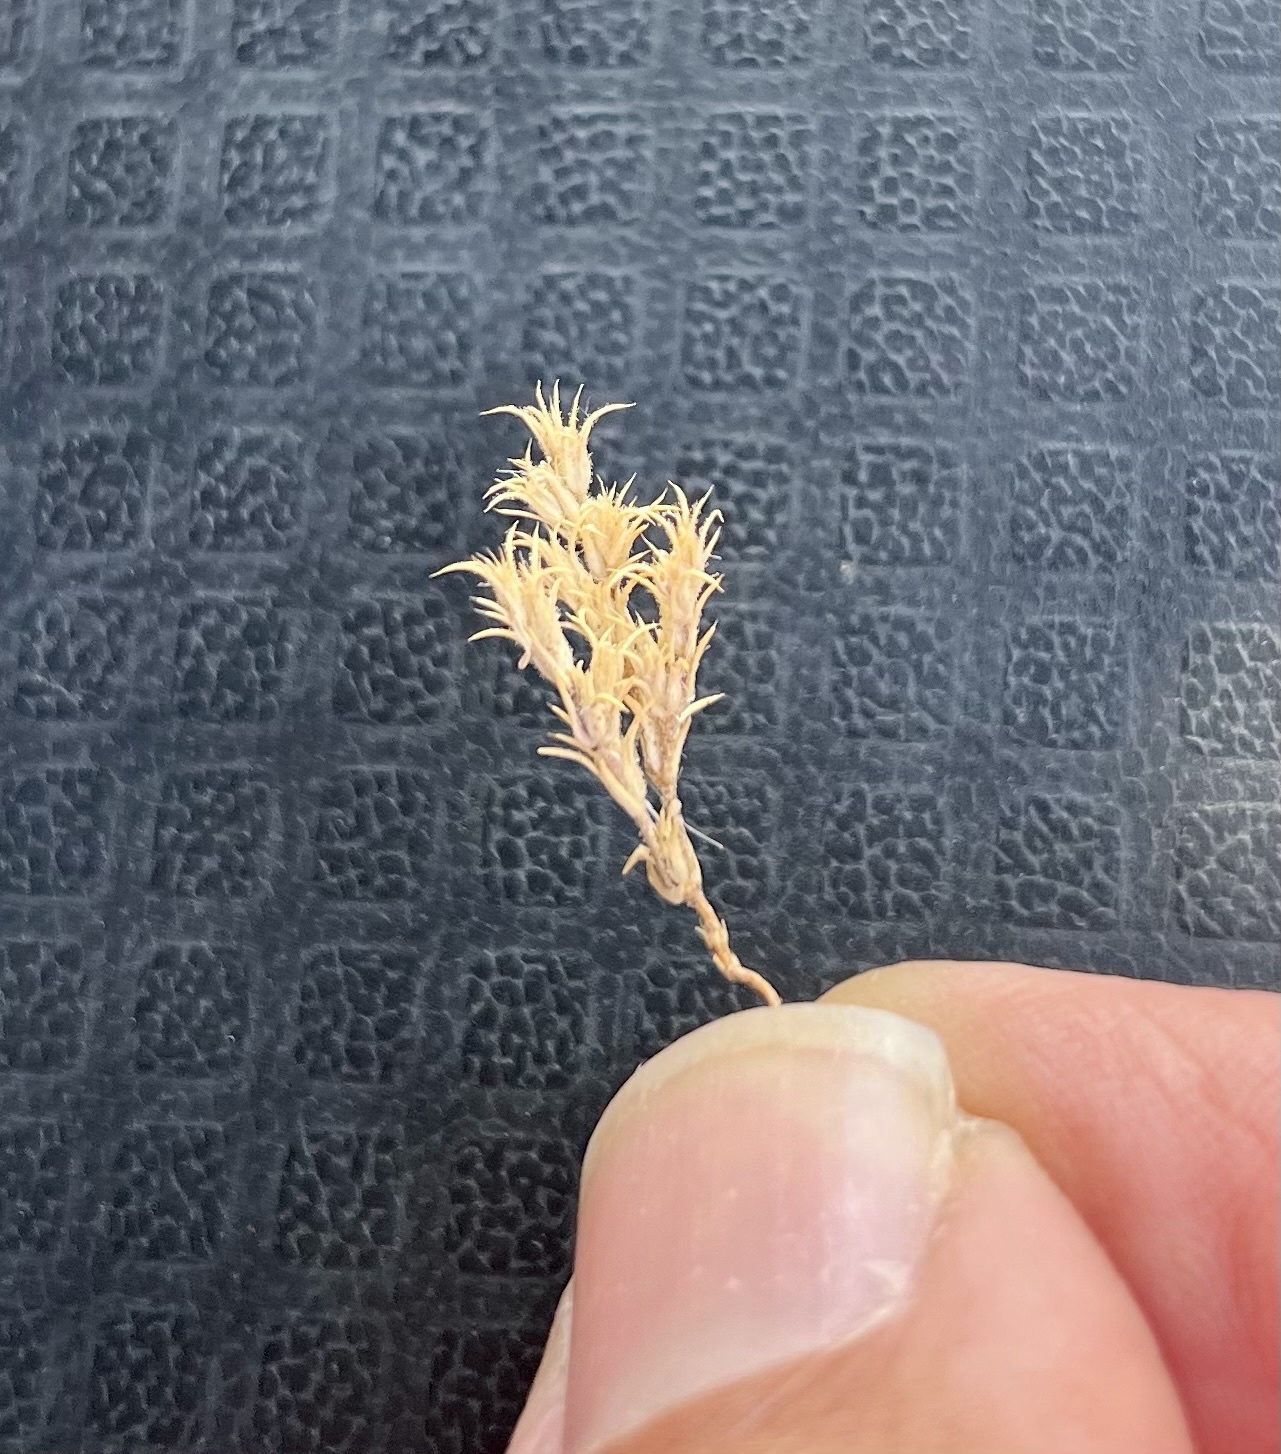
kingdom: Plantae
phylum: Tracheophyta
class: Magnoliopsida
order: Caryophyllales
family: Caryophyllaceae
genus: Loeflingia
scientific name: Loeflingia squarrosa
